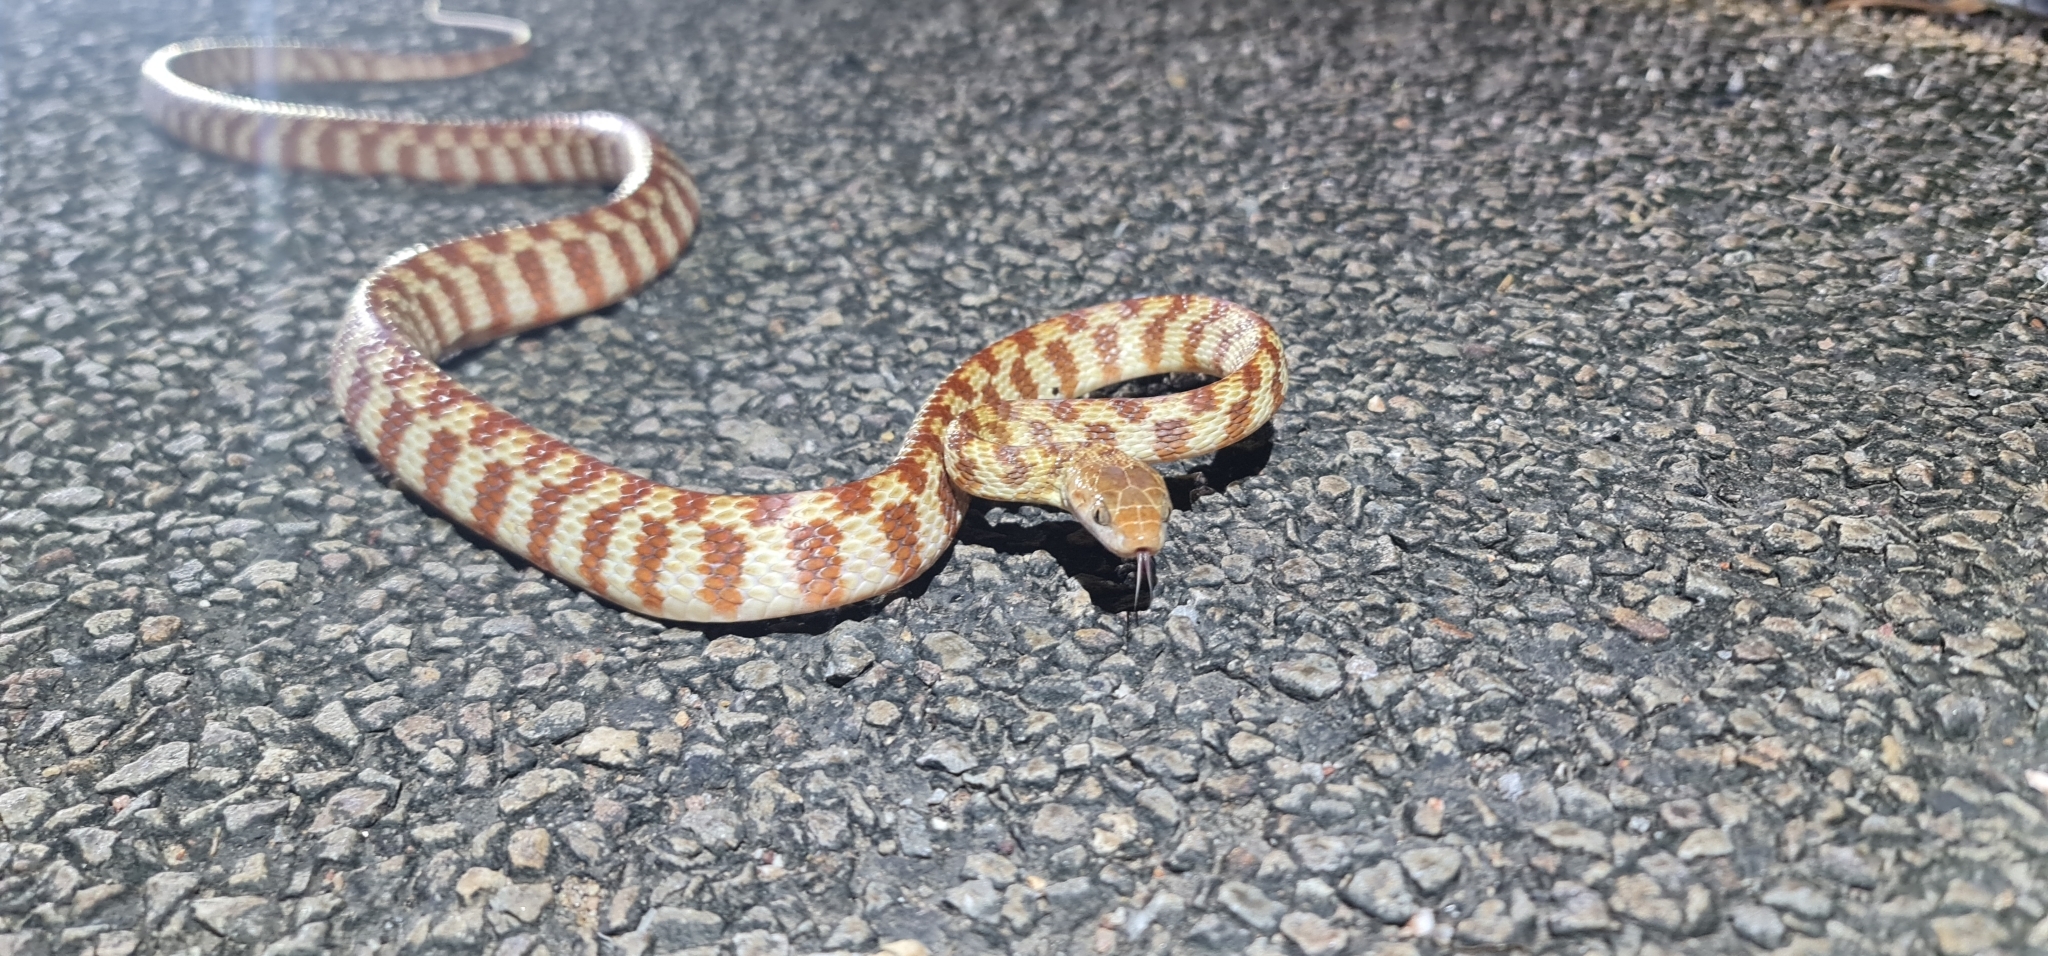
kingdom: Animalia
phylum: Chordata
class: Squamata
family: Colubridae
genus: Boiga
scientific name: Boiga irregularis
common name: Brown tree snake
